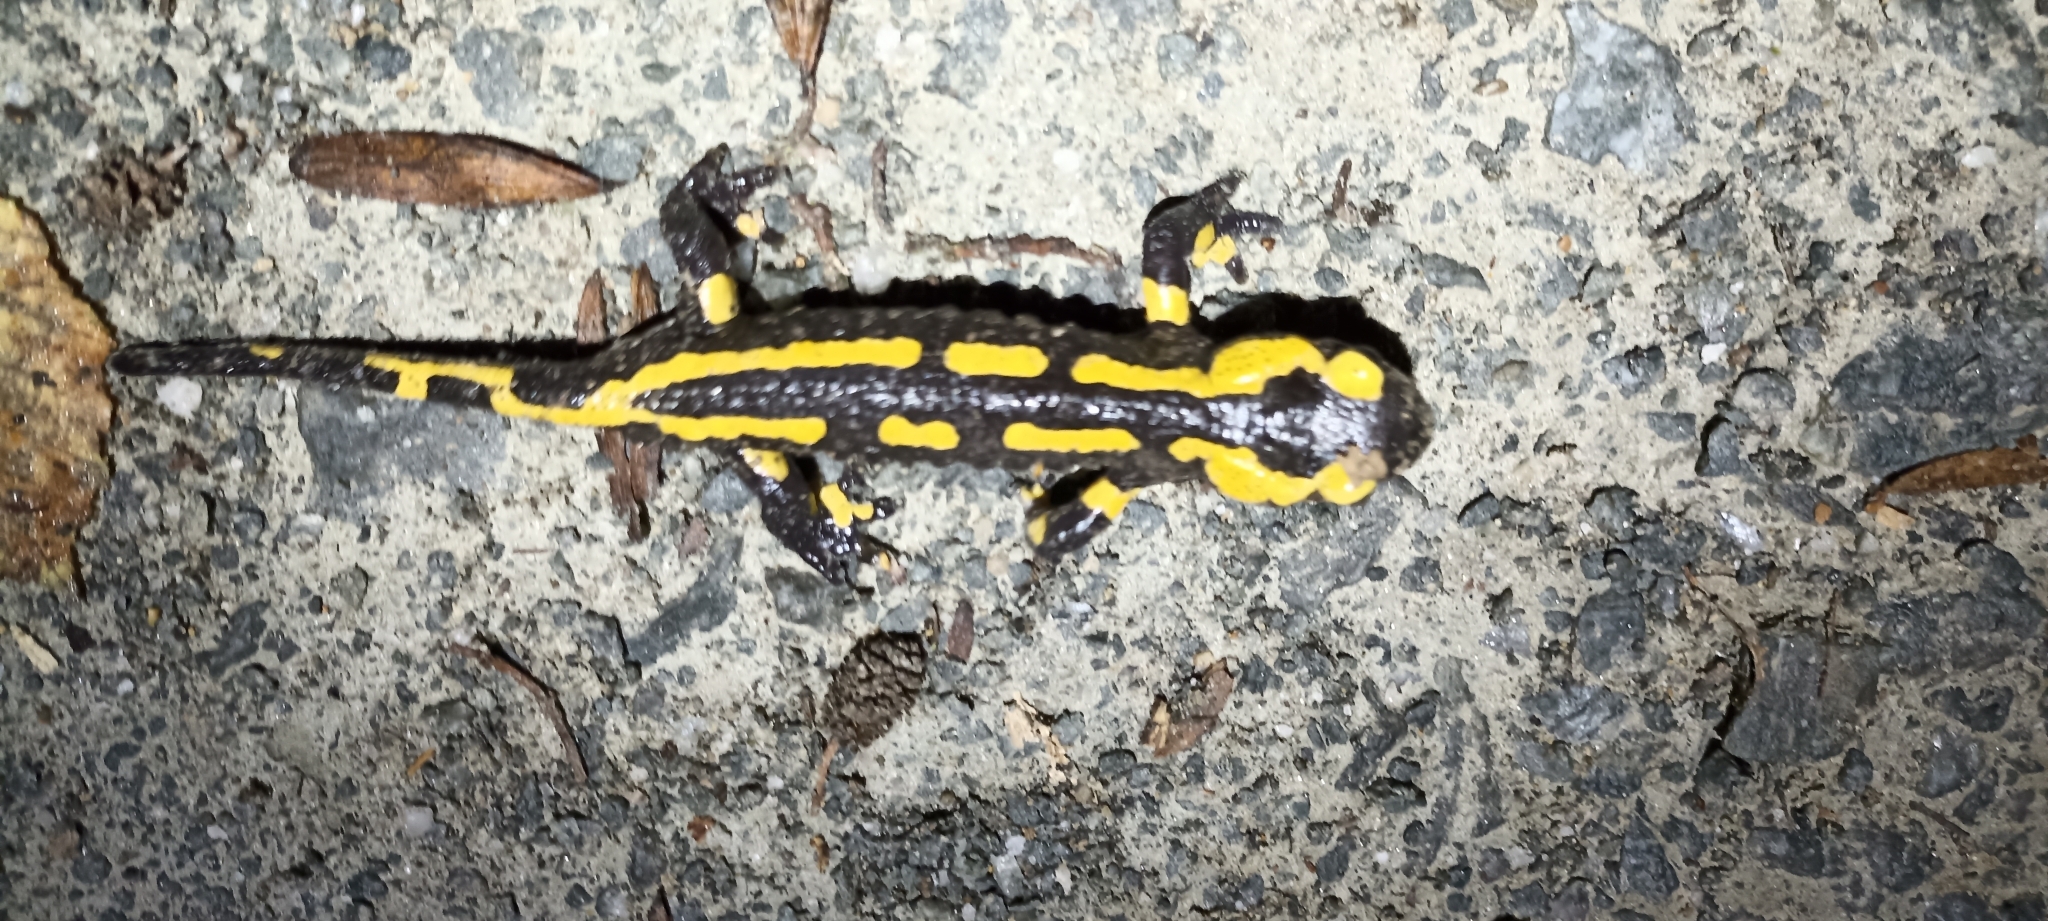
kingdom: Animalia
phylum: Chordata
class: Amphibia
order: Caudata
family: Salamandridae
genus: Salamandra
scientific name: Salamandra salamandra
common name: Fire salamander
